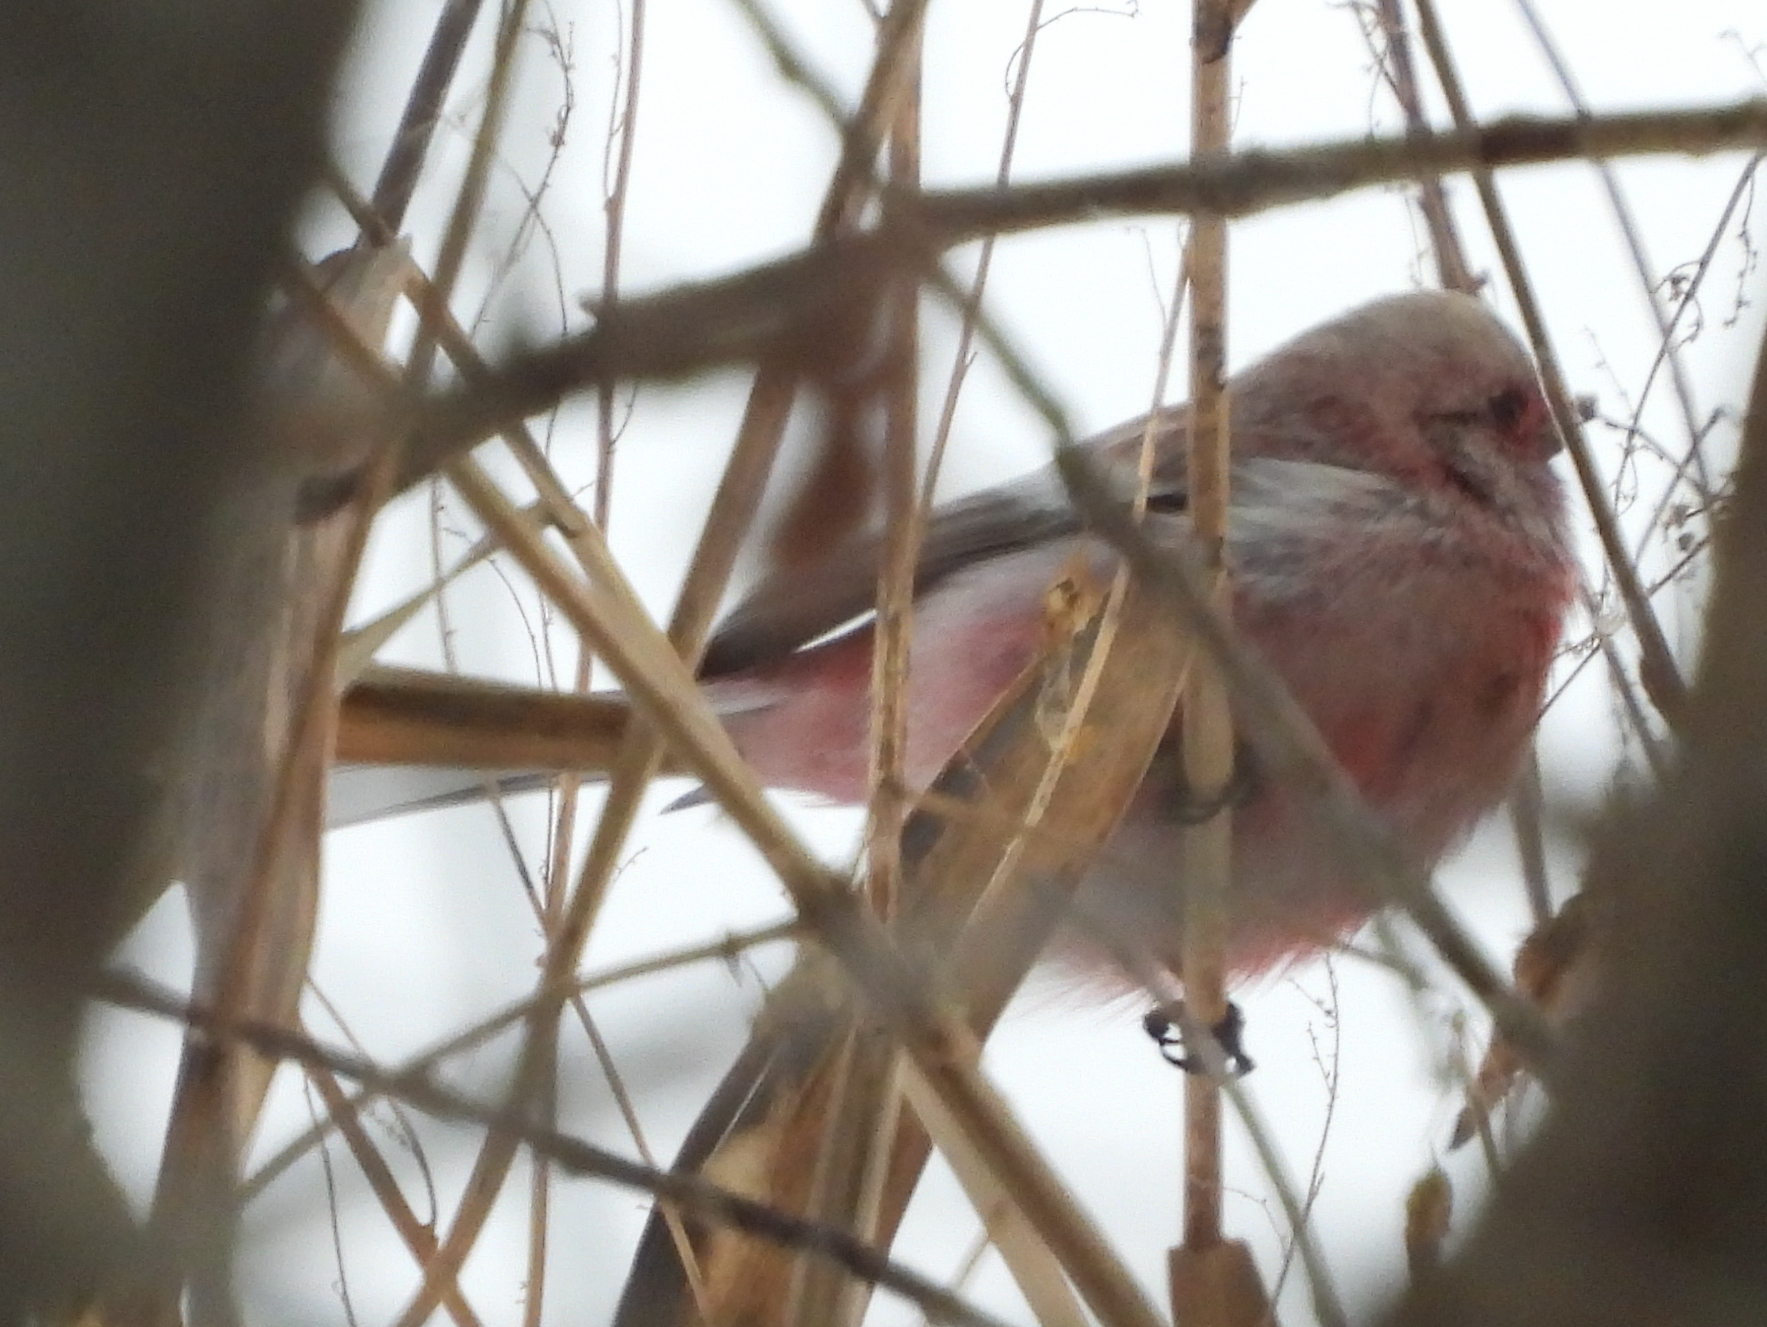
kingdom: Animalia
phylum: Chordata
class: Aves
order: Passeriformes
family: Fringillidae
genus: Carpodacus
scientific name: Carpodacus sibiricus
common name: Long-tailed rosefinch
